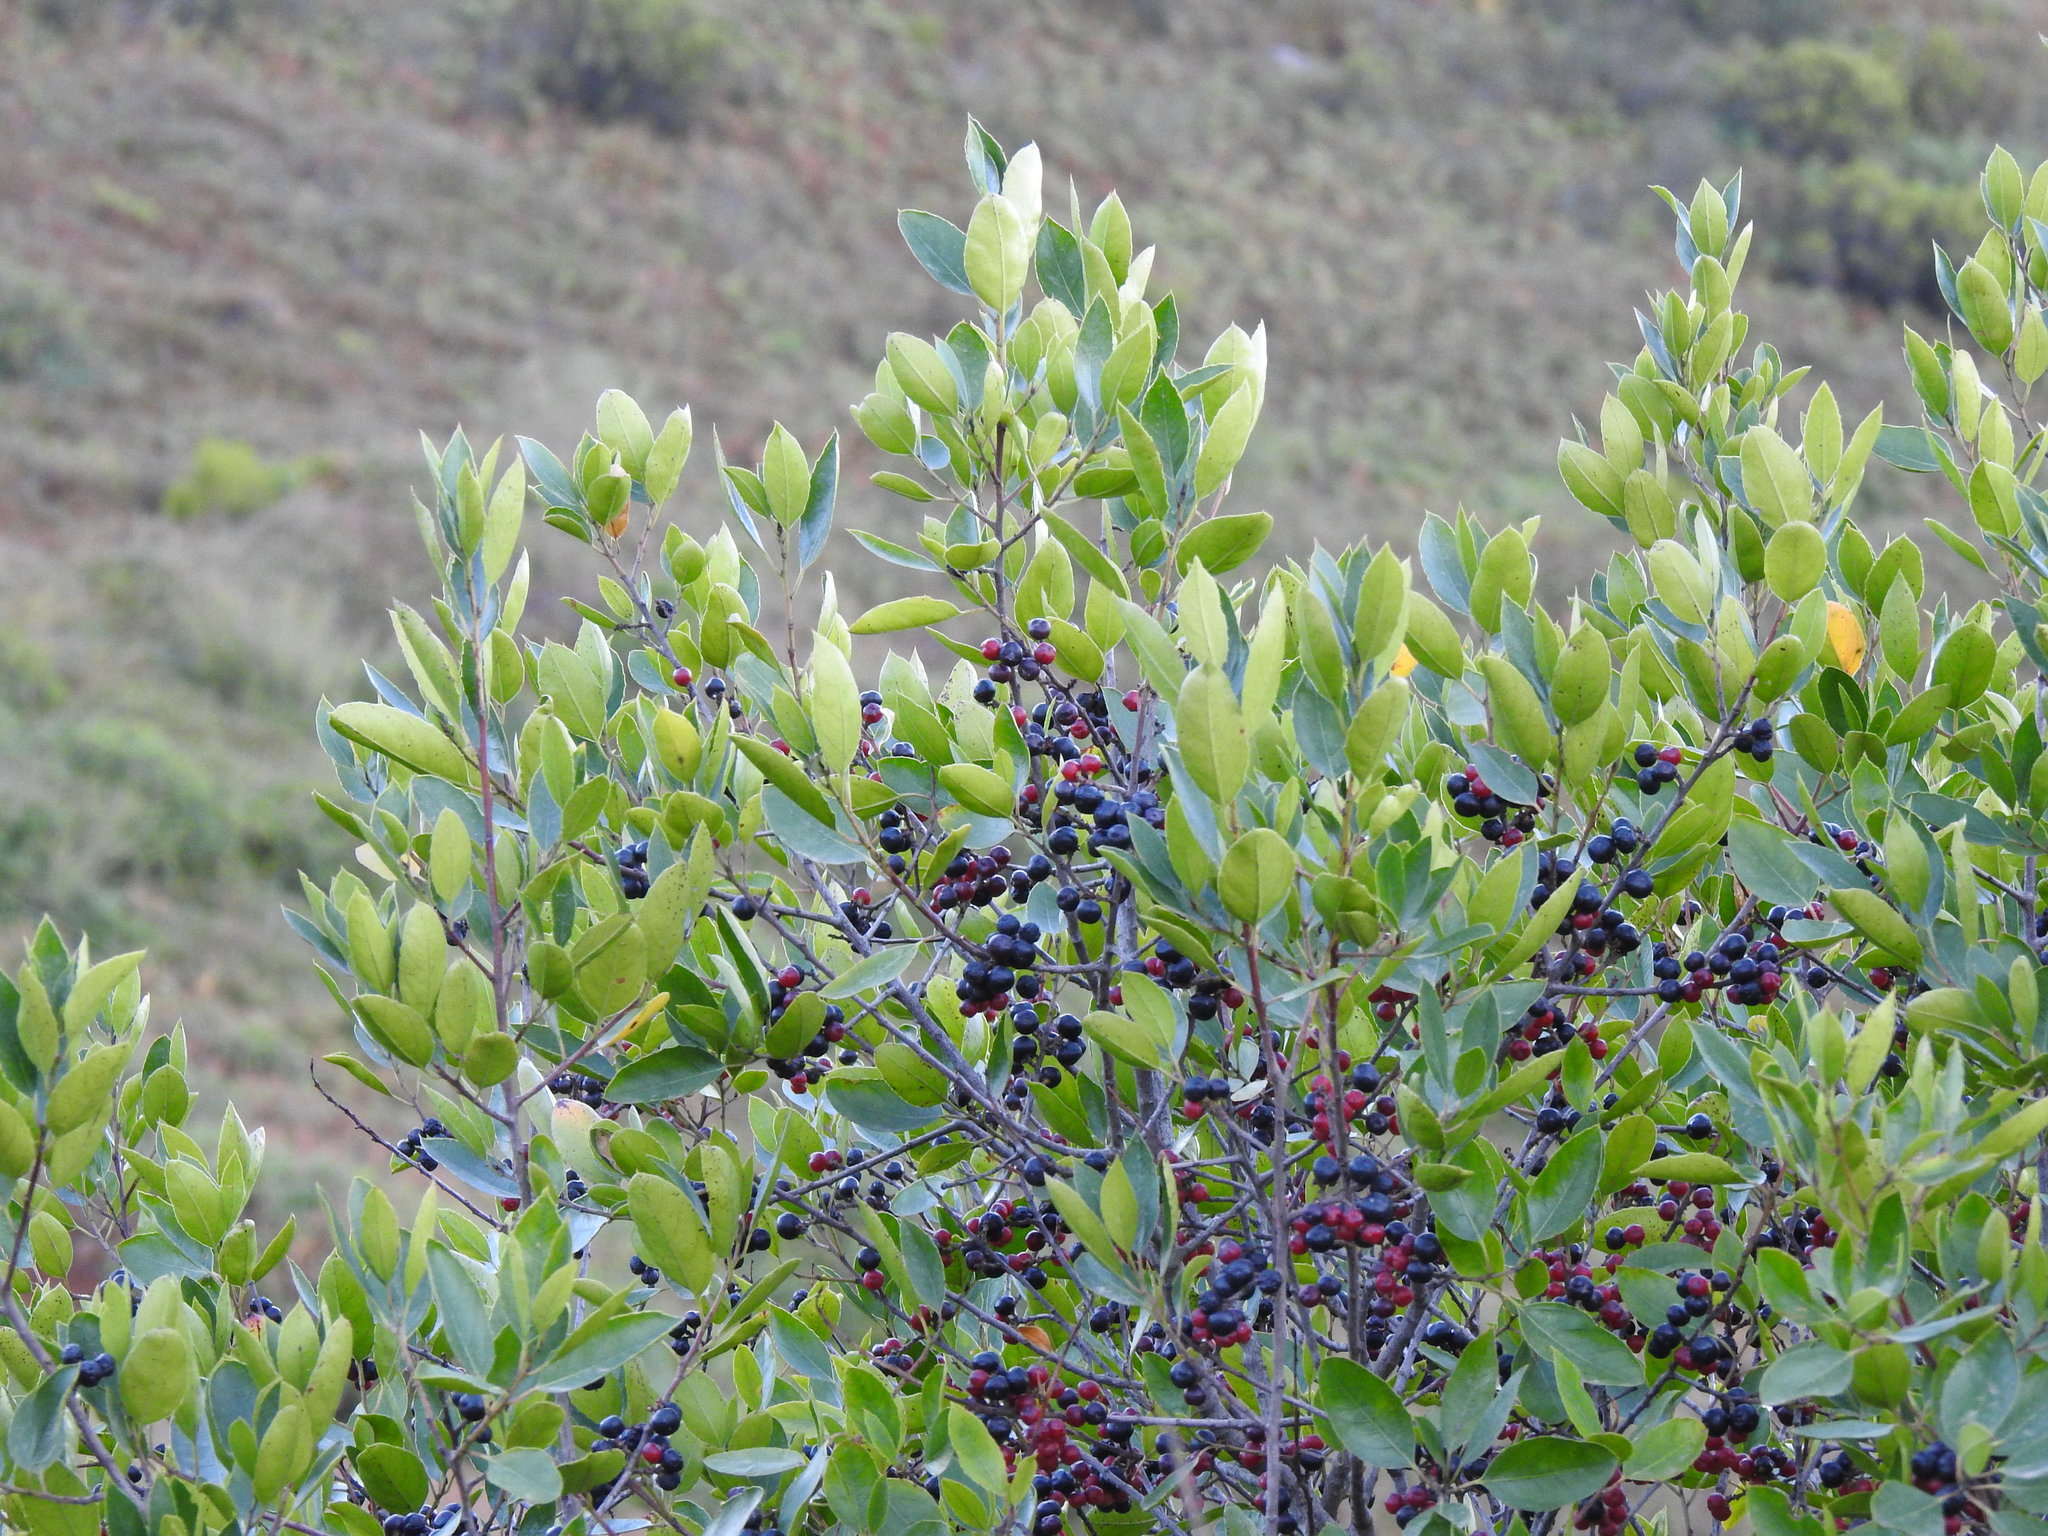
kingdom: Plantae
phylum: Tracheophyta
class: Magnoliopsida
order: Rosales
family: Rhamnaceae
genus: Rhamnus
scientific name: Rhamnus alaternus
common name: Mediterranean buckthorn
